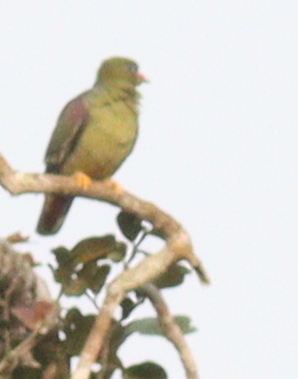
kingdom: Animalia
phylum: Chordata
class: Aves
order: Columbiformes
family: Columbidae
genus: Treron
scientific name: Treron calvus
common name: African green pigeon
